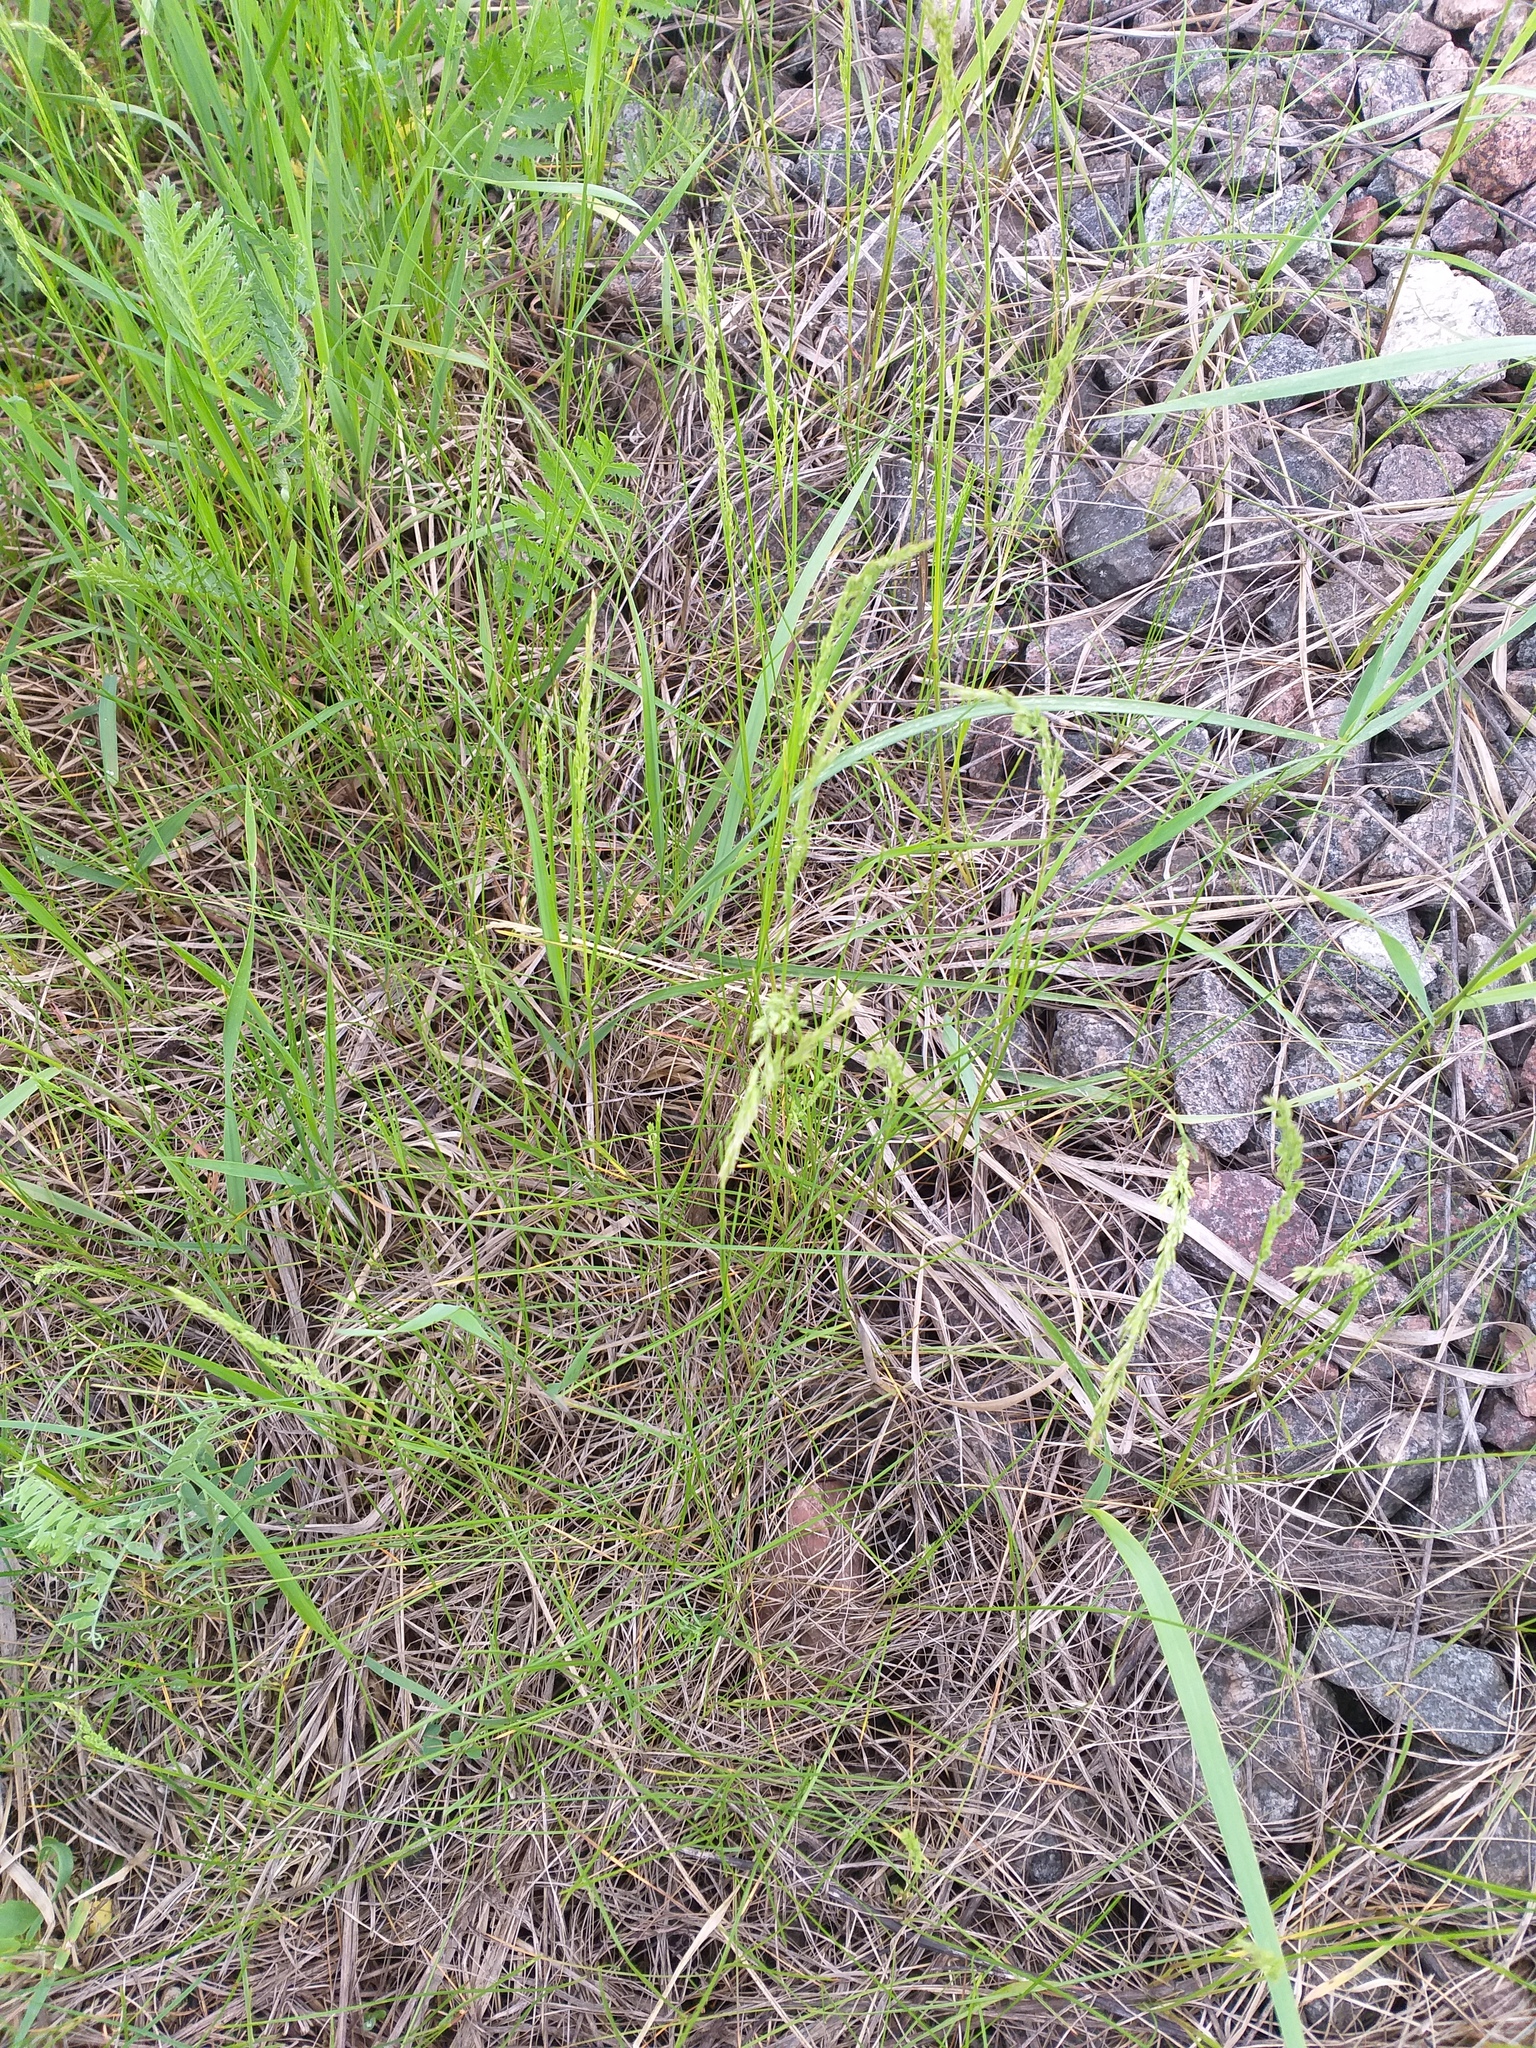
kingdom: Plantae
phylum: Tracheophyta
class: Liliopsida
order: Poales
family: Poaceae
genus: Poa
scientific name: Poa angustifolia
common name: Narrow-leaved meadow-grass
